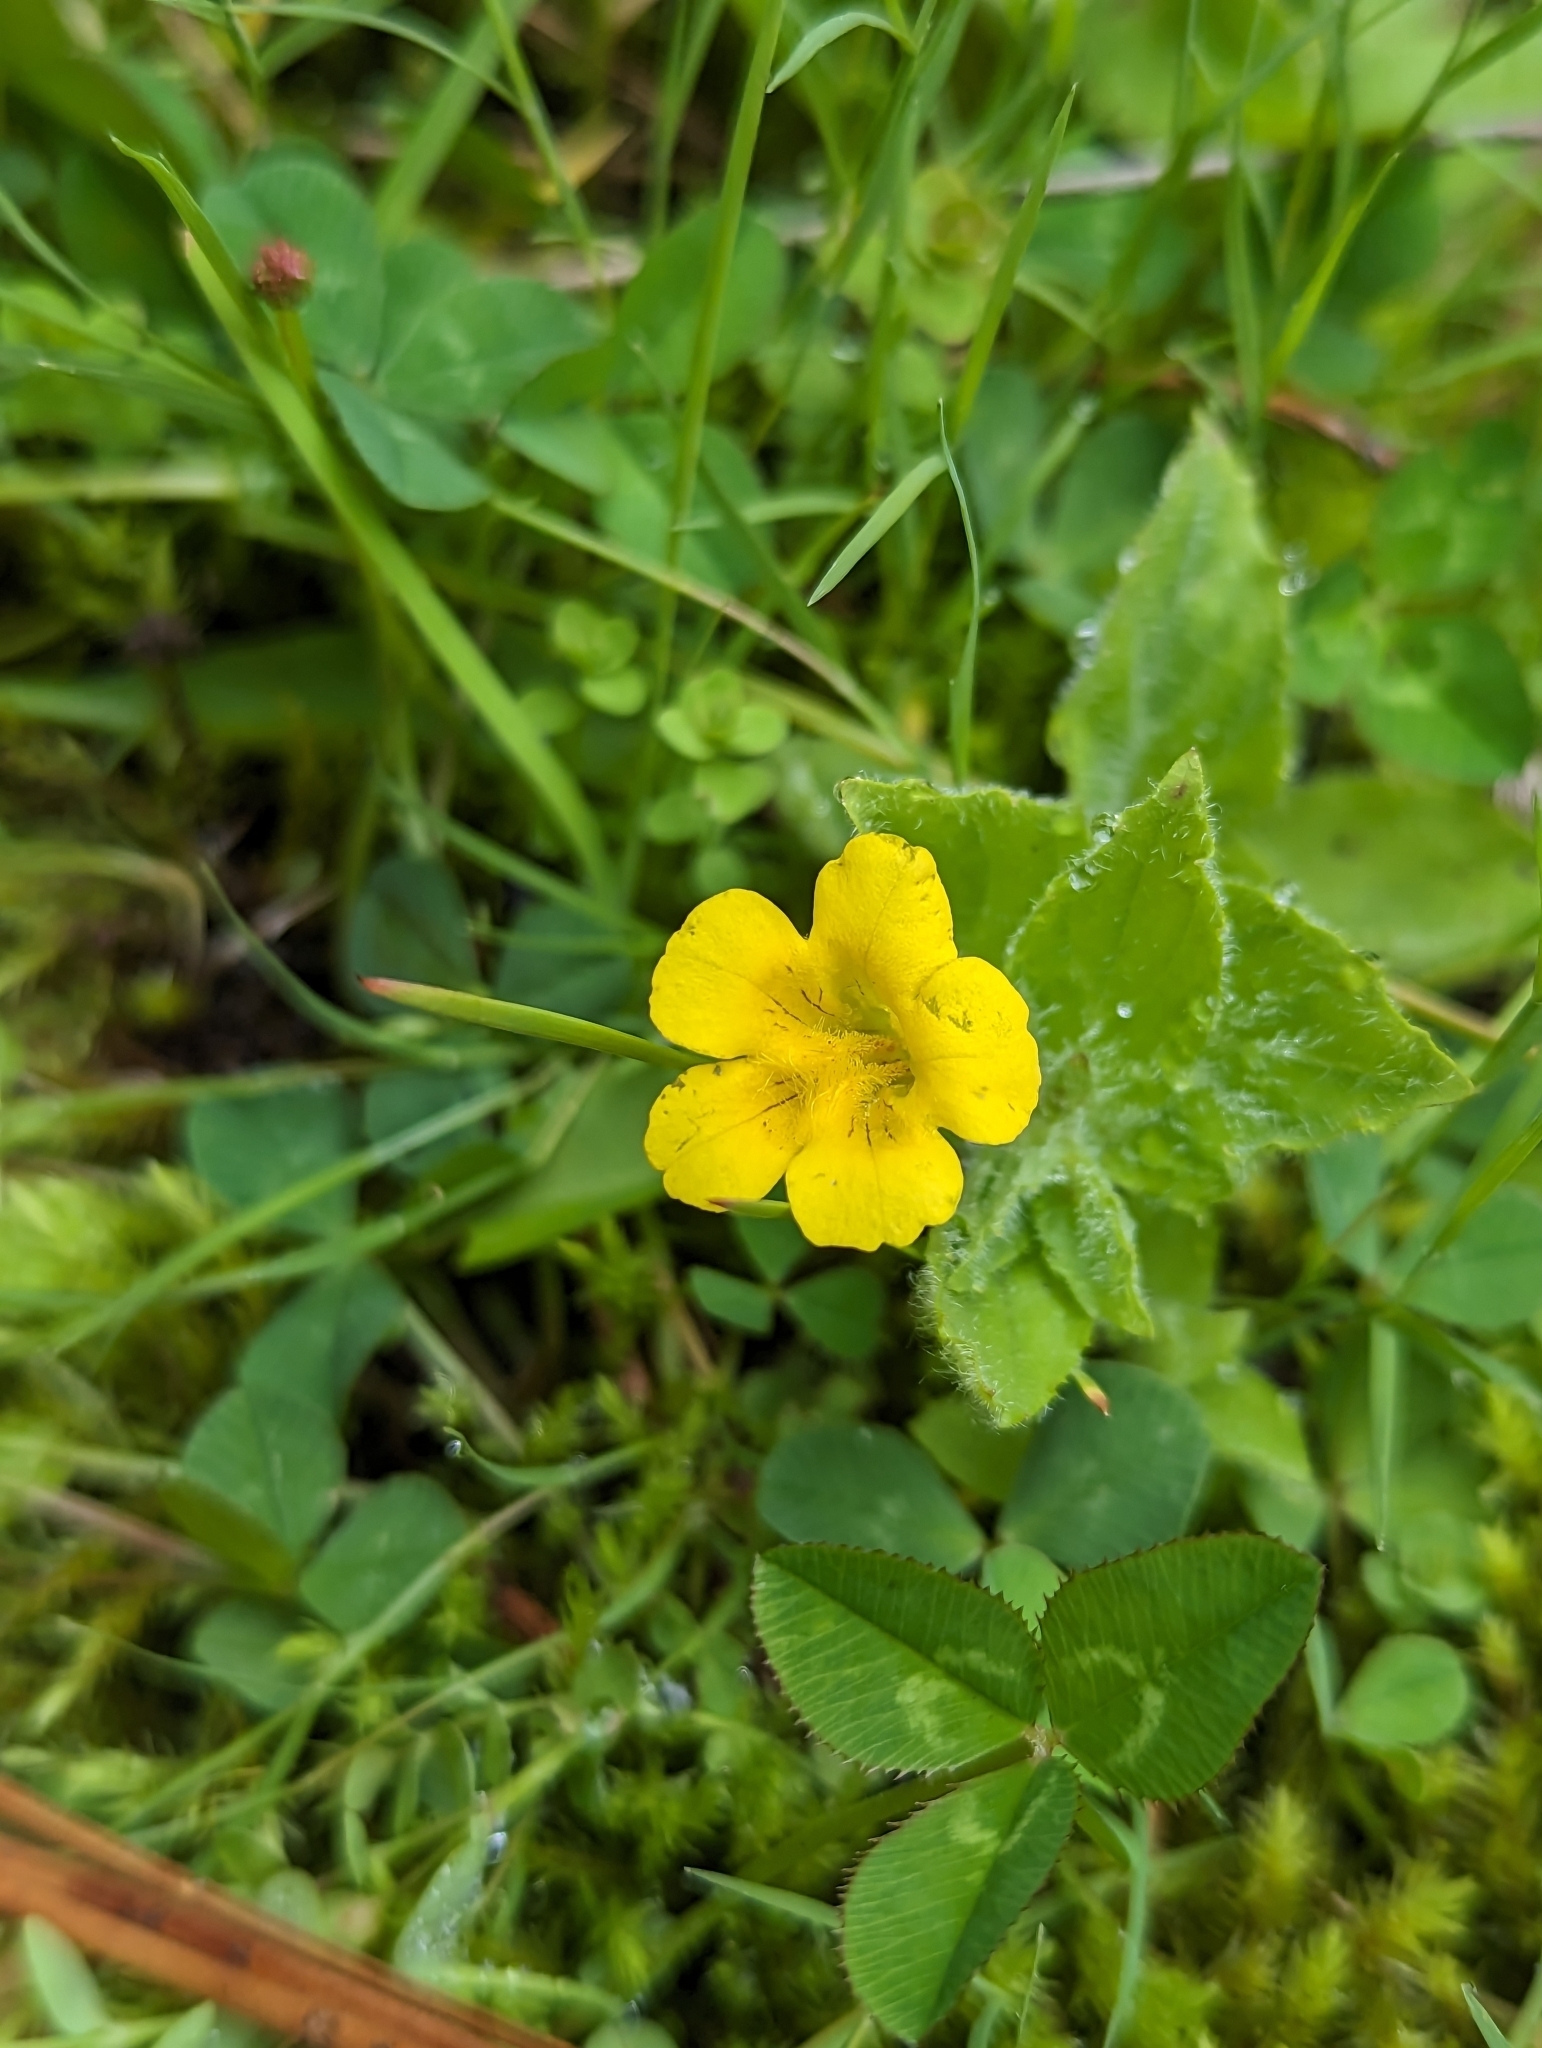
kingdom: Plantae
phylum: Tracheophyta
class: Magnoliopsida
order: Lamiales
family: Phrymaceae
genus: Erythranthe
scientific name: Erythranthe moschata
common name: Muskflower
